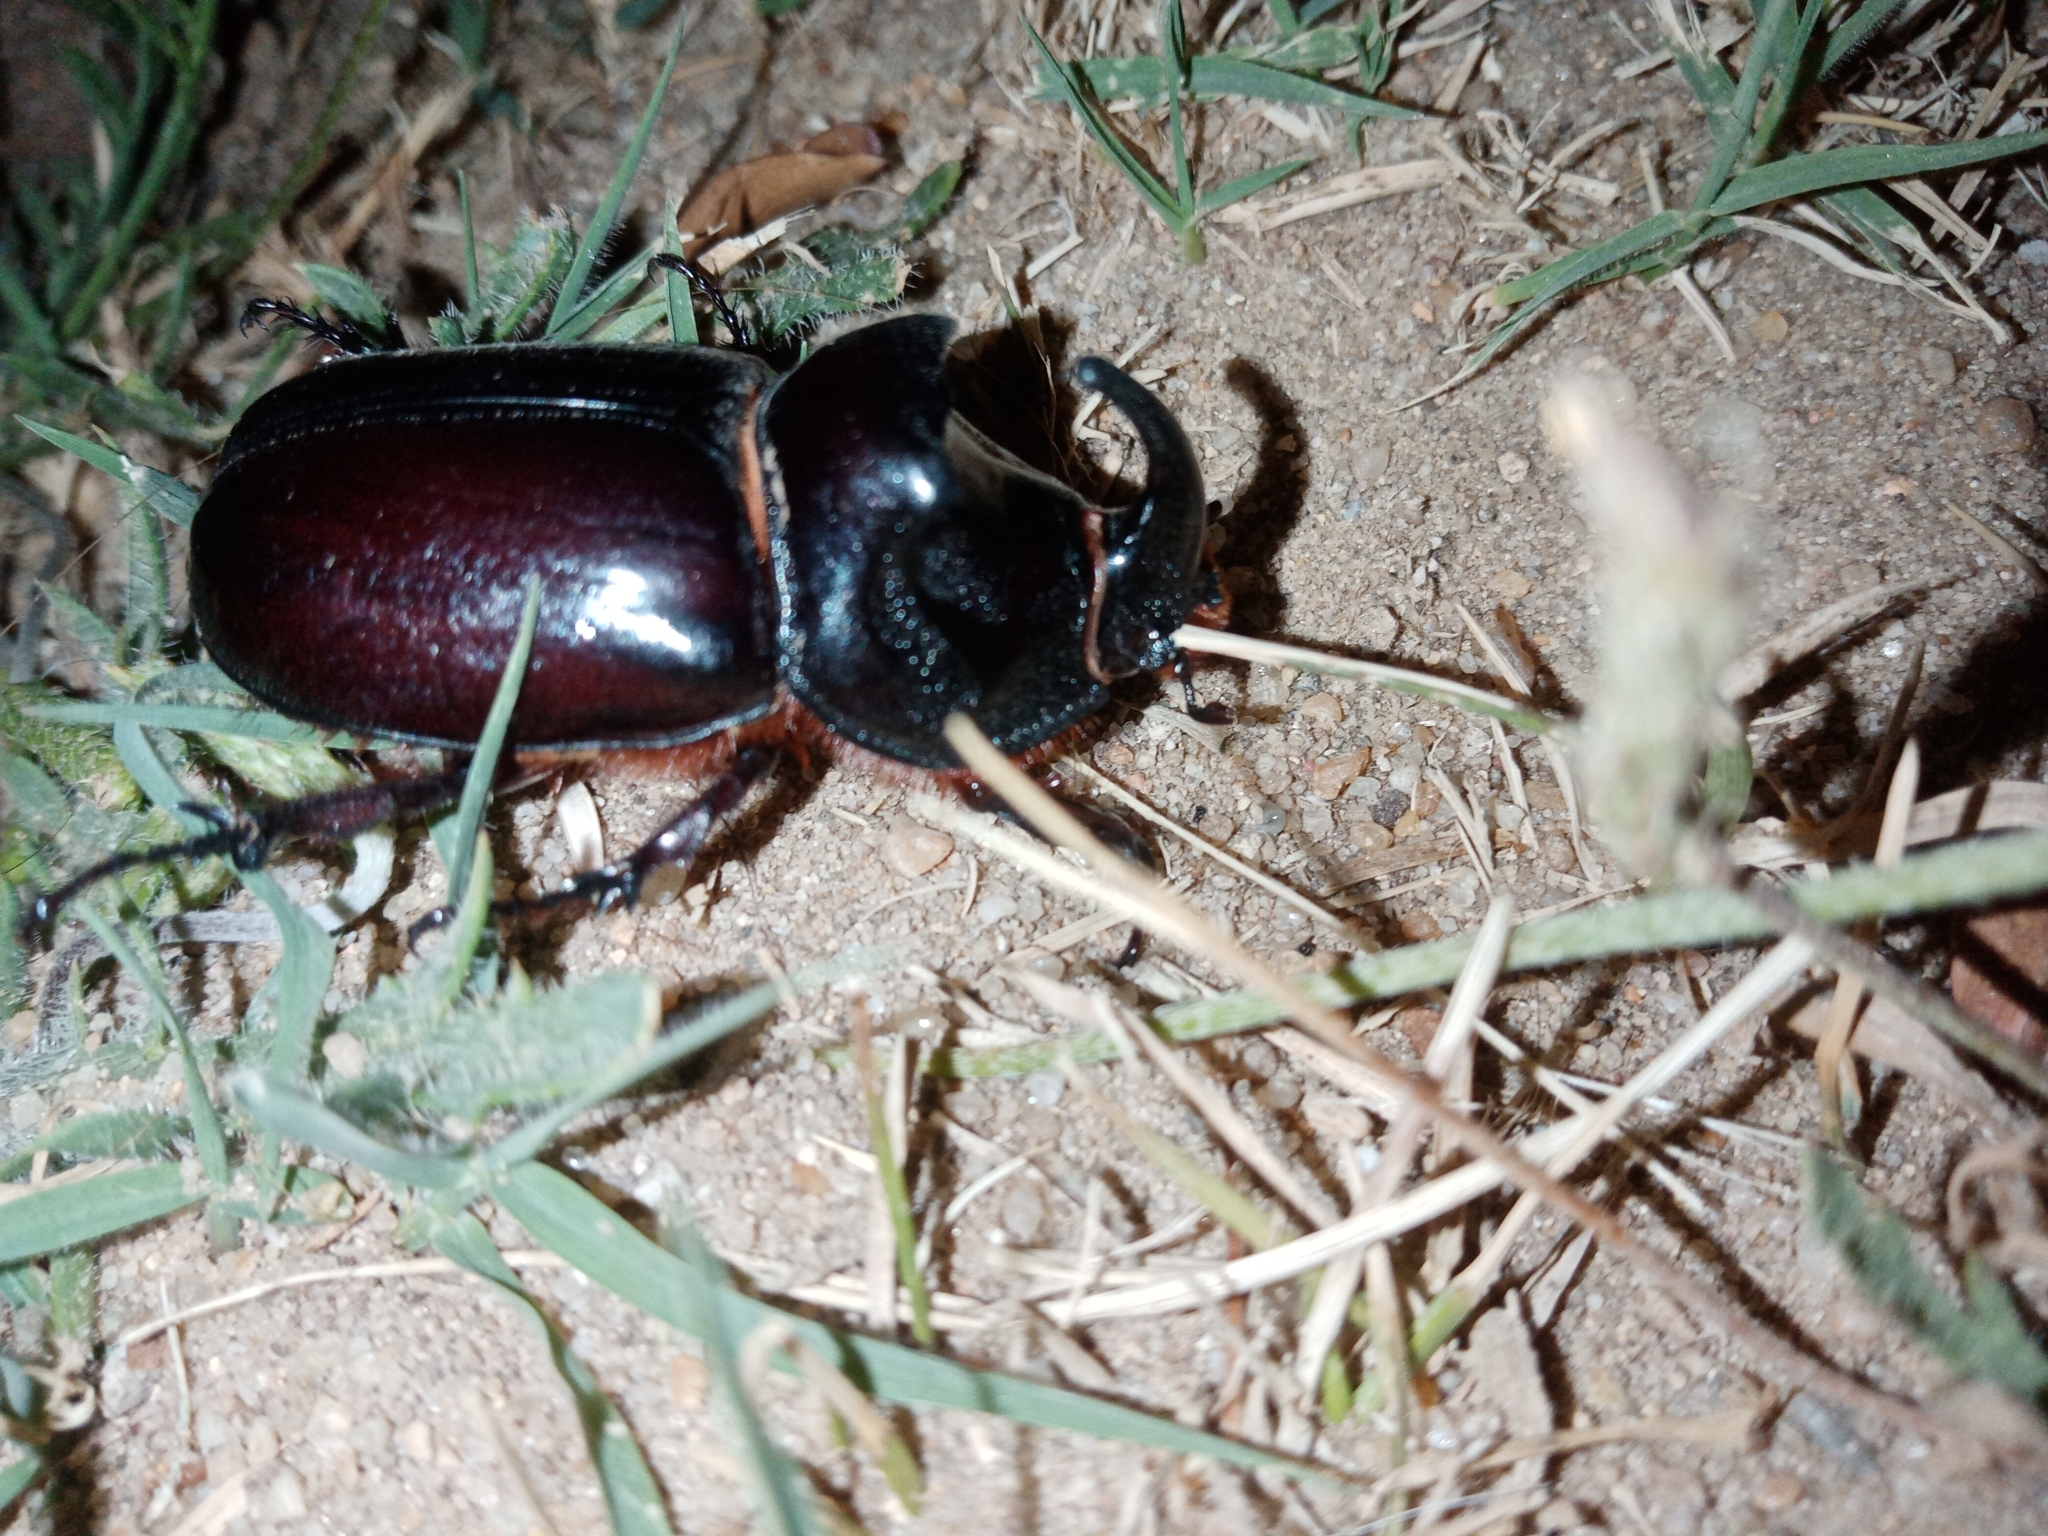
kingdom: Animalia
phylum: Arthropoda
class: Insecta
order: Coleoptera
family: Scarabaeidae
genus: Oryctes
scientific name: Oryctes nasicornis
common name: European rhinoceros beetle
